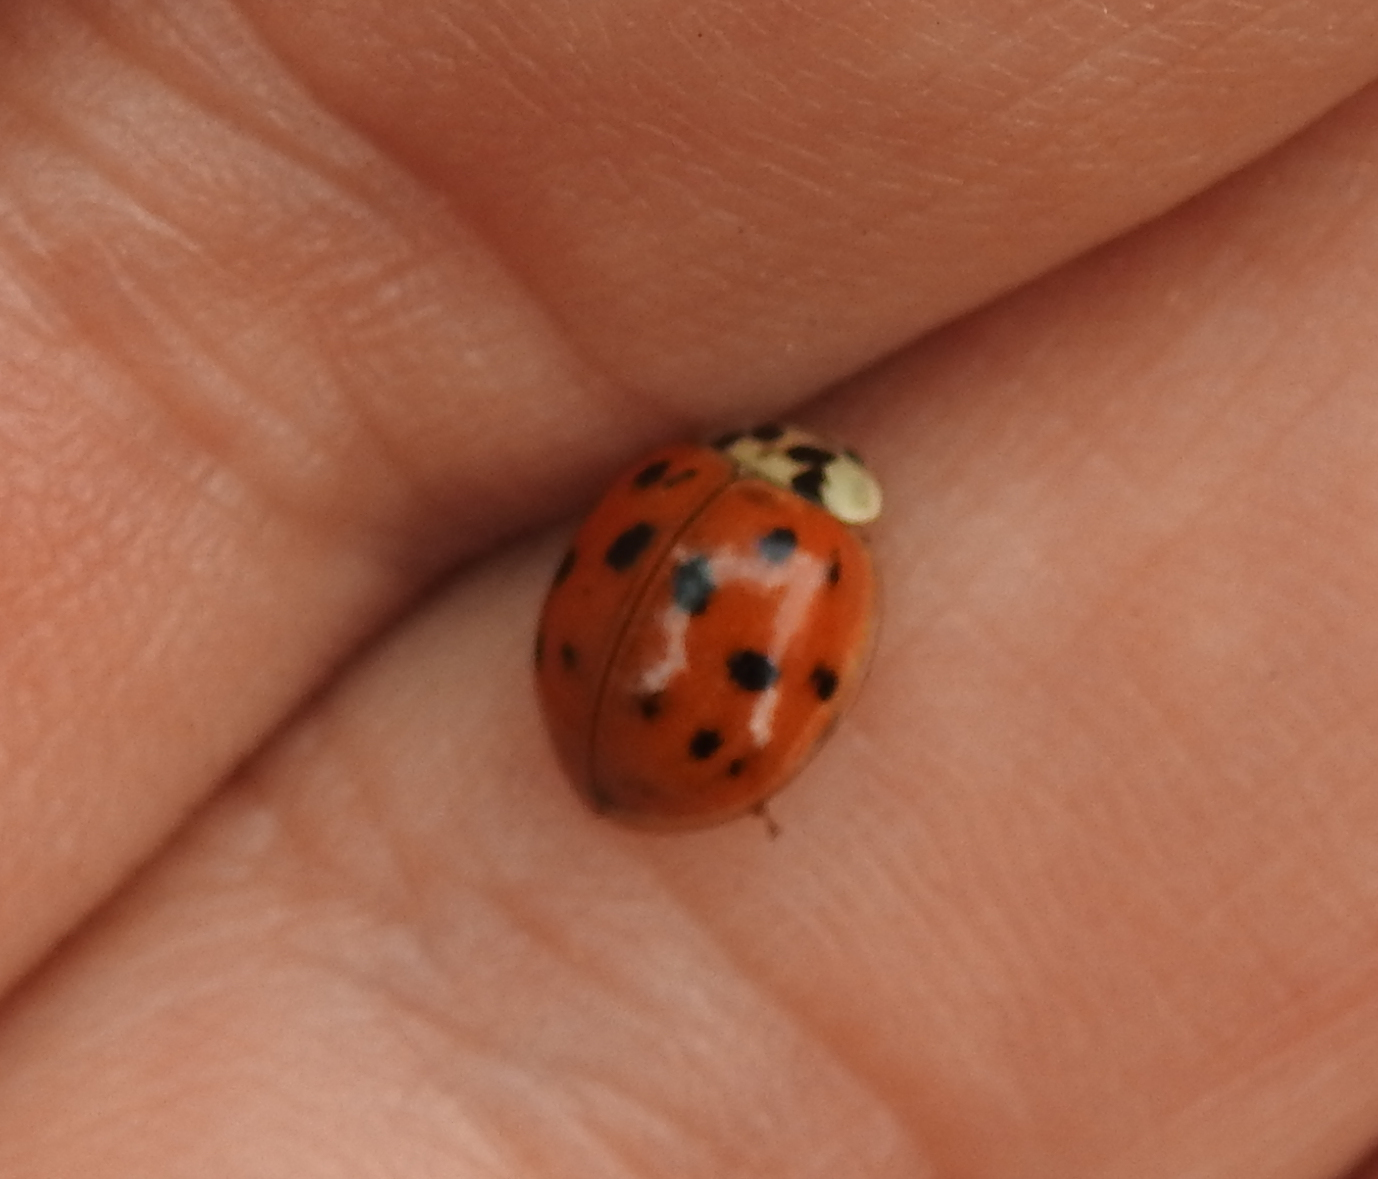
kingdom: Animalia
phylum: Arthropoda
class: Insecta
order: Coleoptera
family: Coccinellidae
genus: Harmonia
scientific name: Harmonia axyridis
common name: Harlequin ladybird
